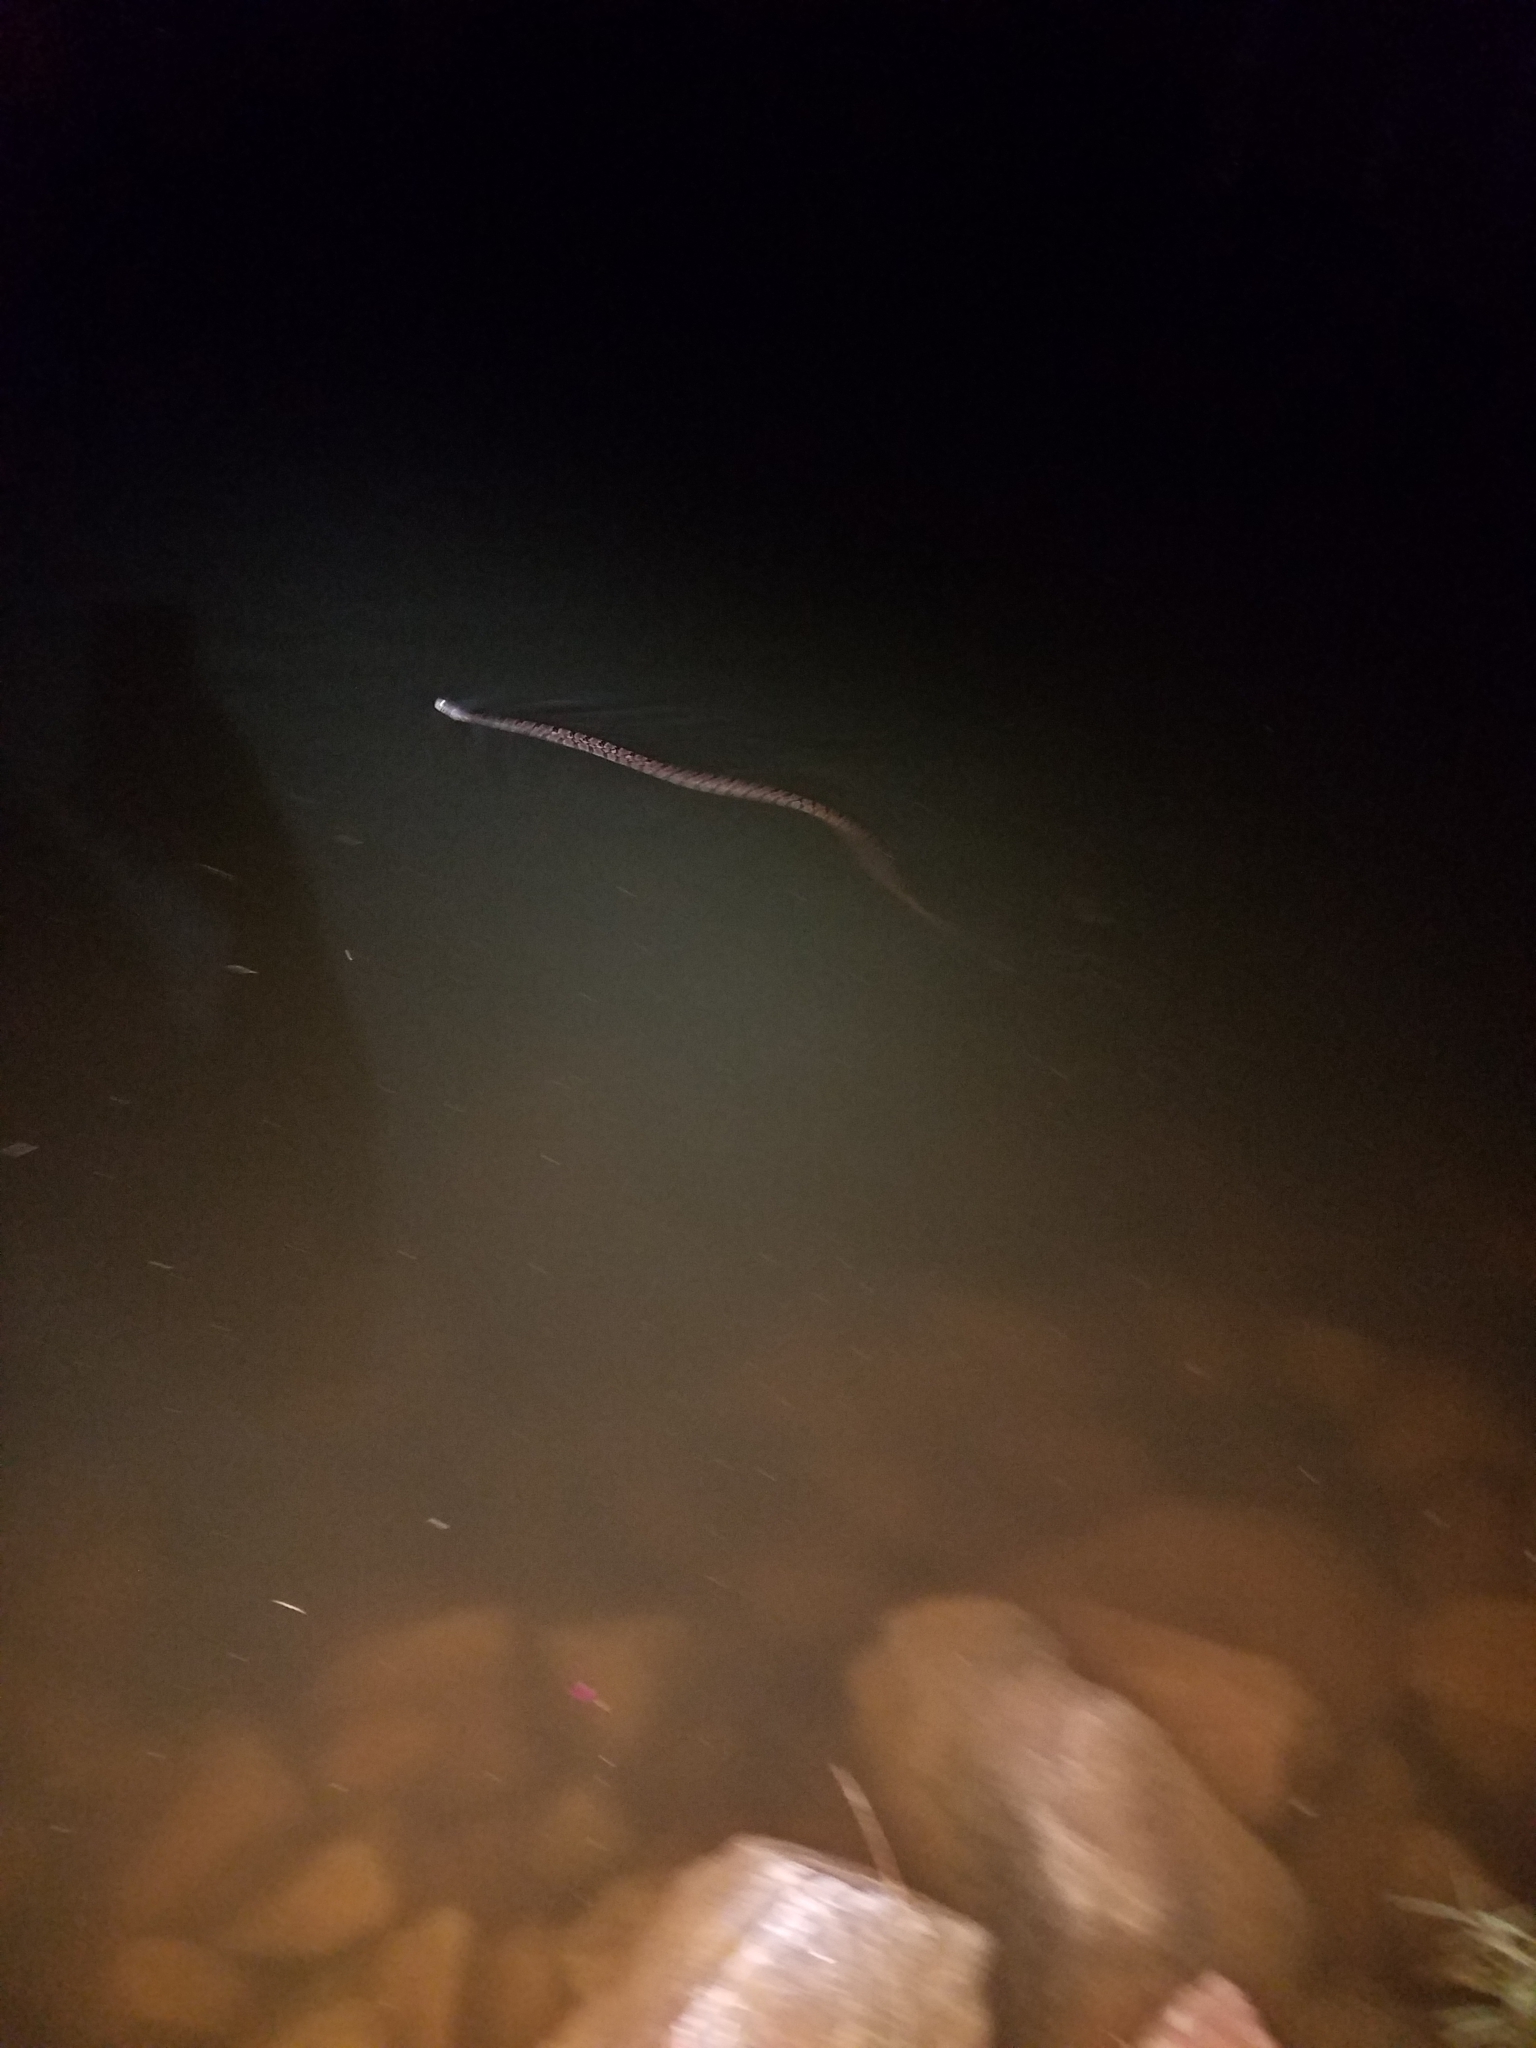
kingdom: Animalia
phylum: Chordata
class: Squamata
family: Colubridae
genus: Nerodia
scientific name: Nerodia rhombifer
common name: Diamondback water snake
